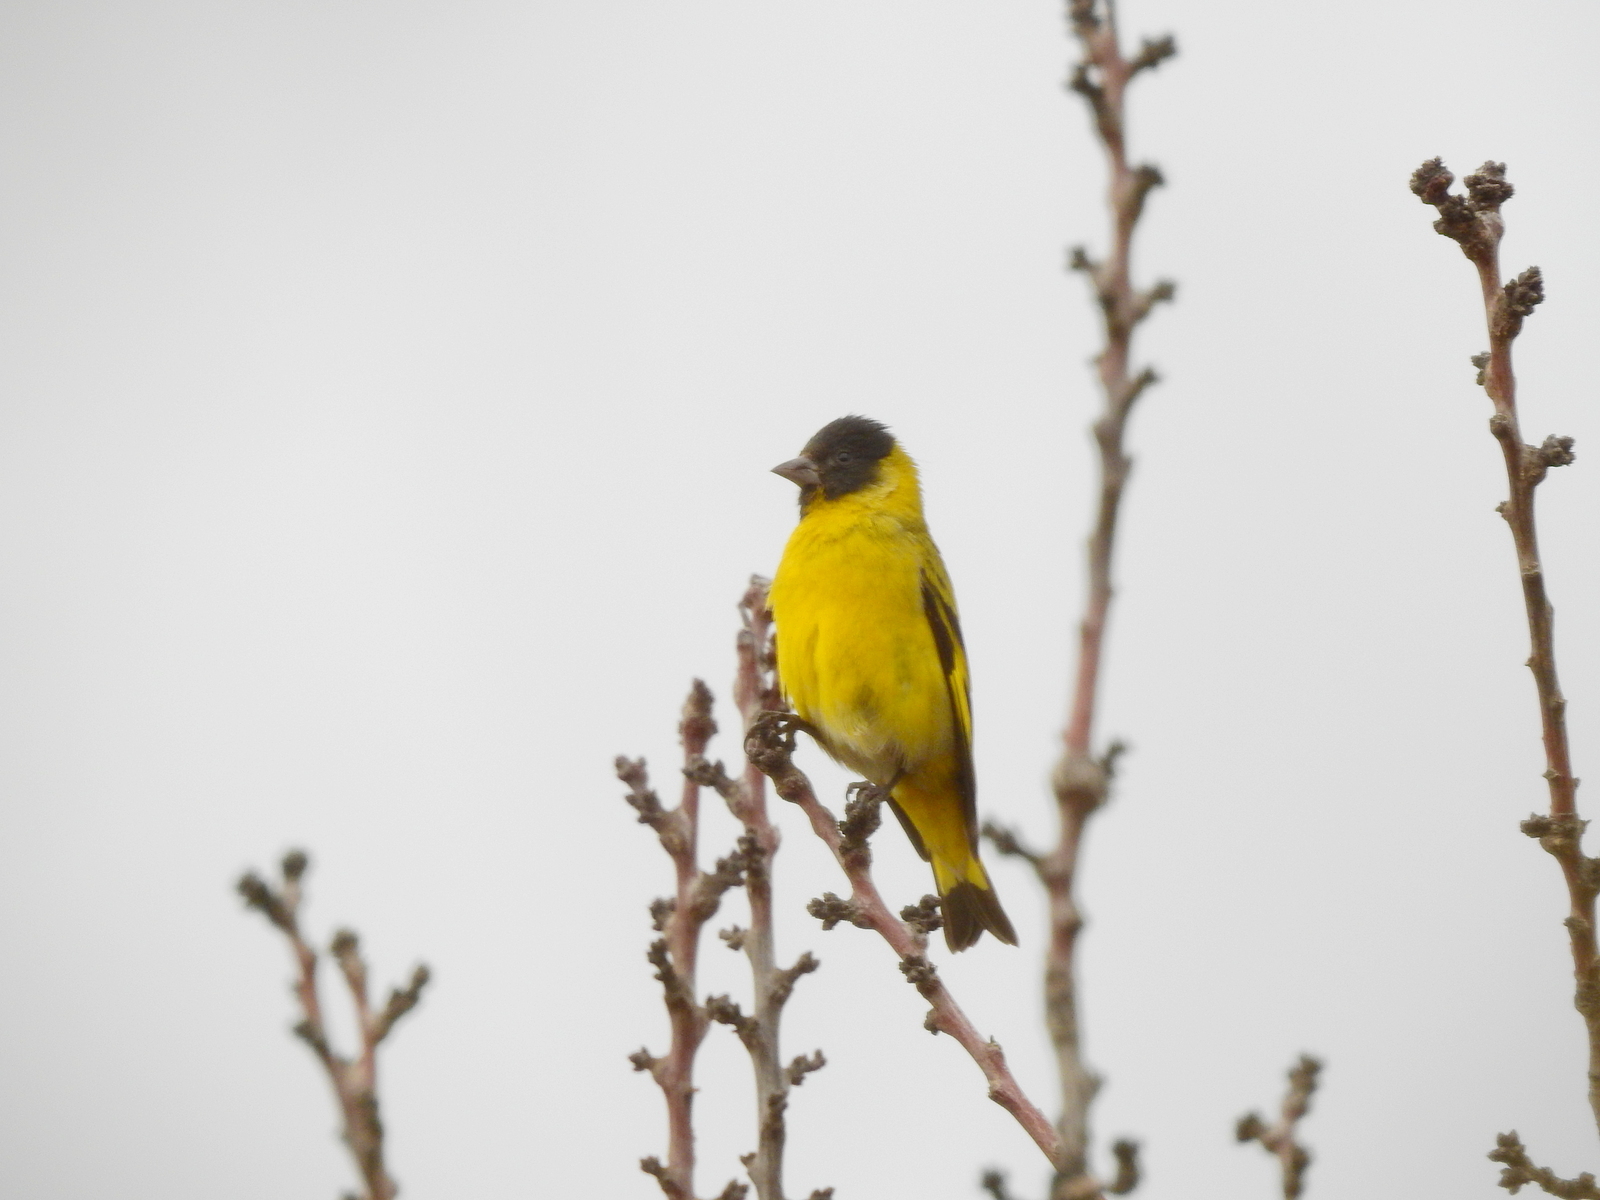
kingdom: Animalia
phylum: Chordata
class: Aves
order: Passeriformes
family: Fringillidae
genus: Spinus
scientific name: Spinus magellanicus
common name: Hooded siskin
